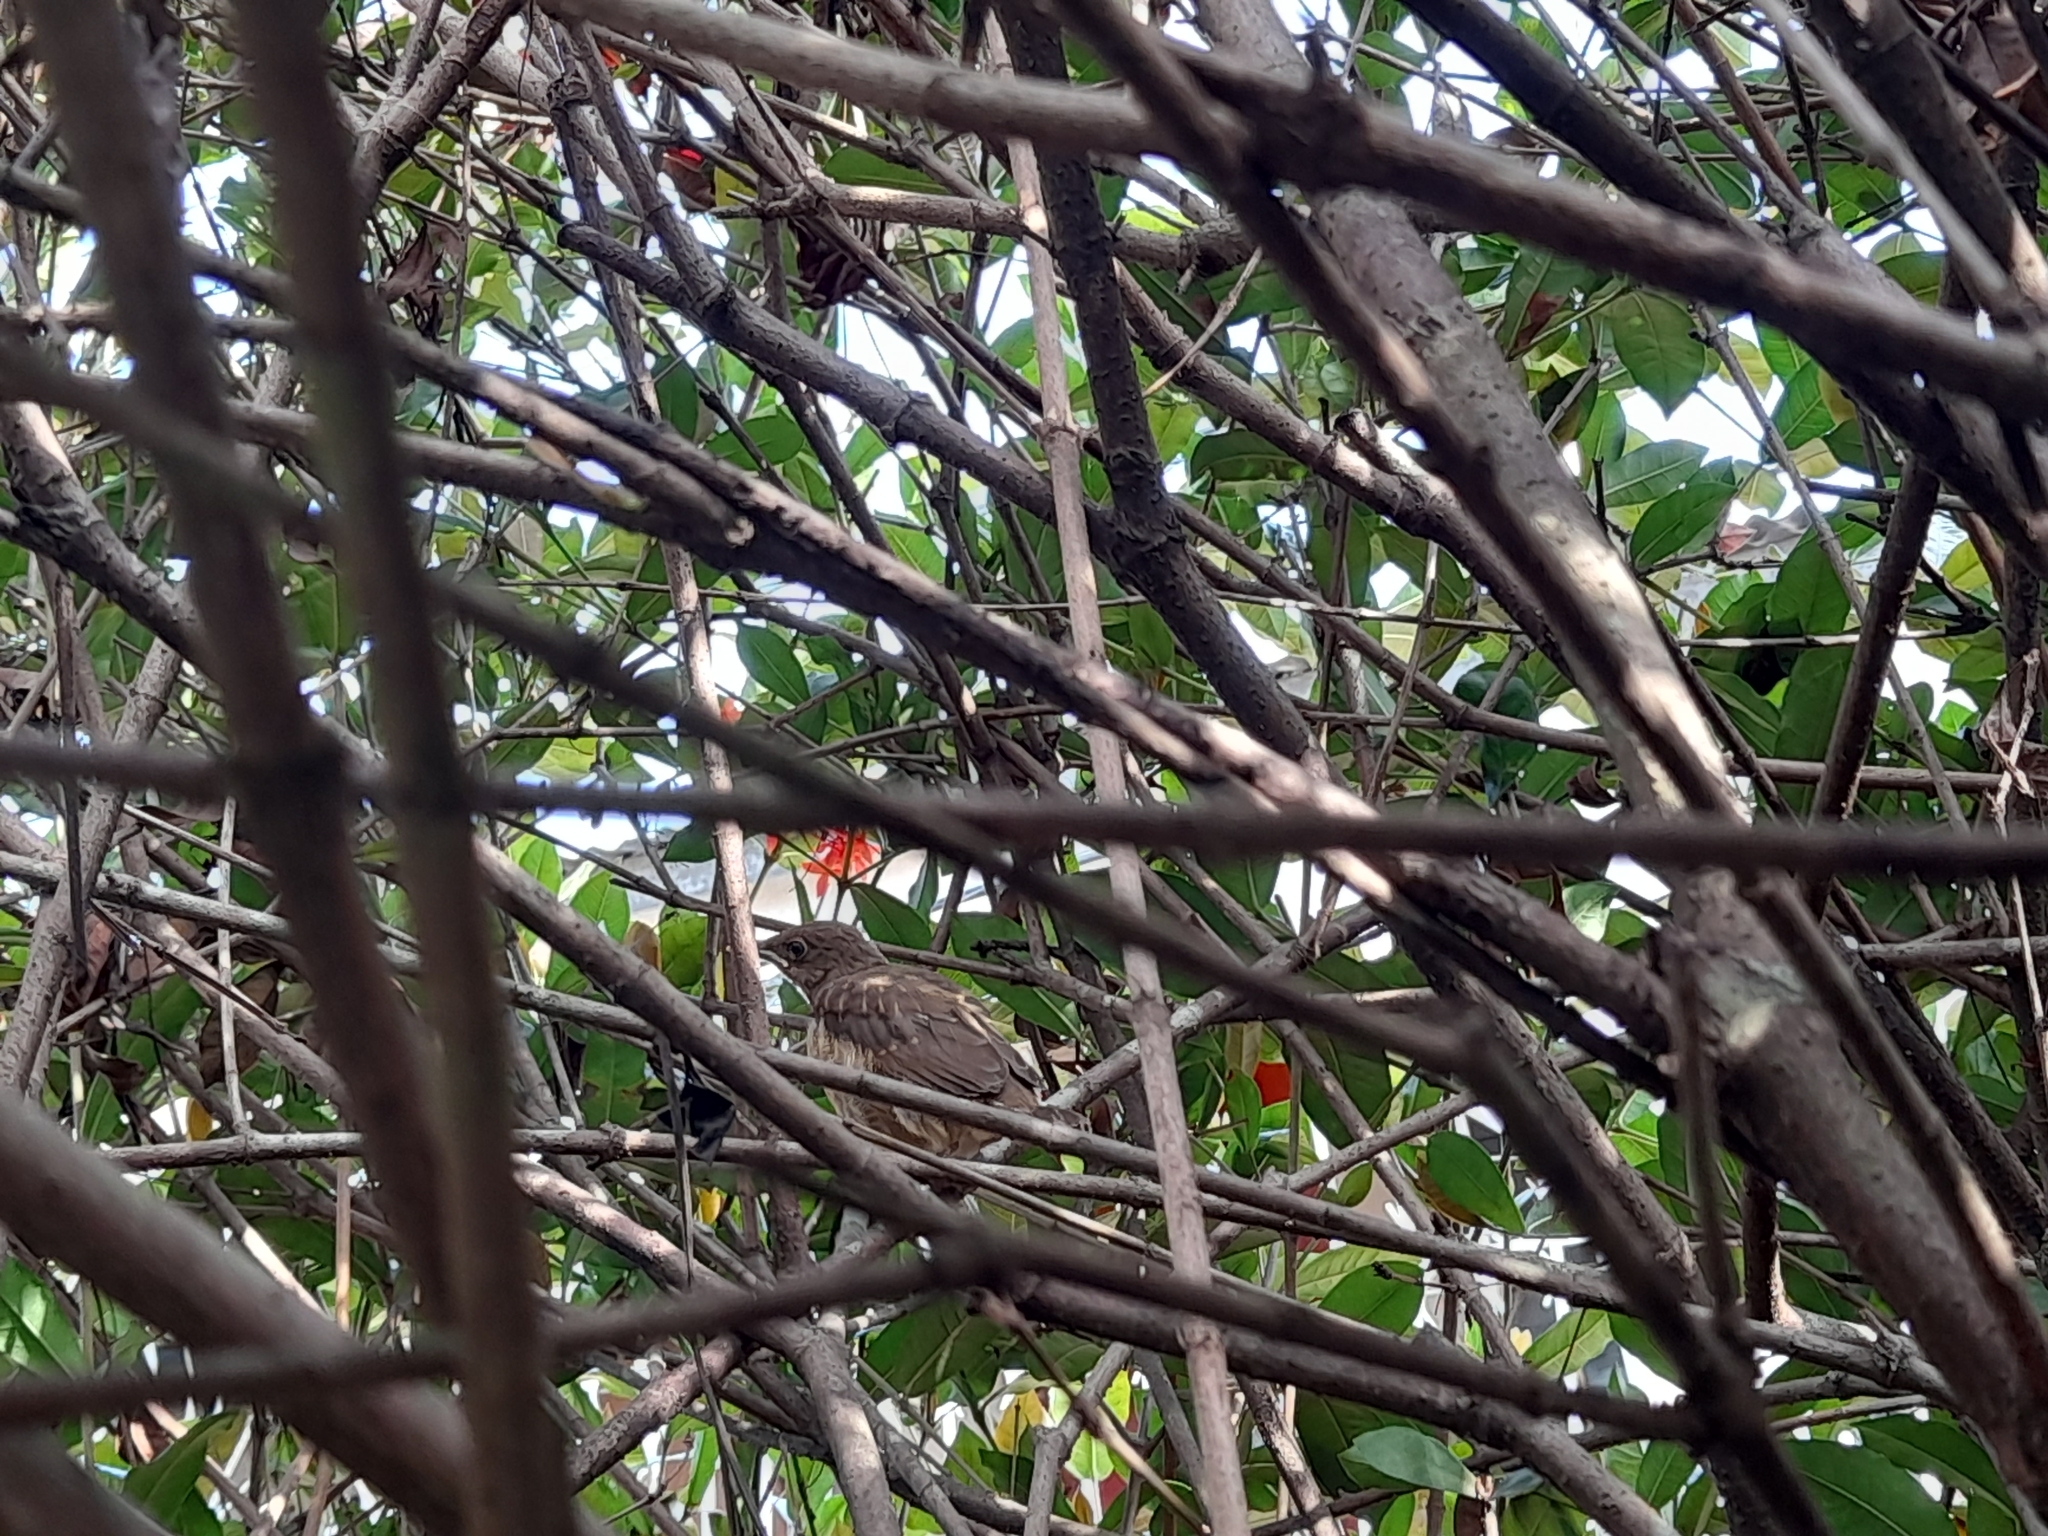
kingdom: Animalia
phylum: Chordata
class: Aves
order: Passeriformes
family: Turdidae
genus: Turdus
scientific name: Turdus grayi
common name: Clay-colored thrush
